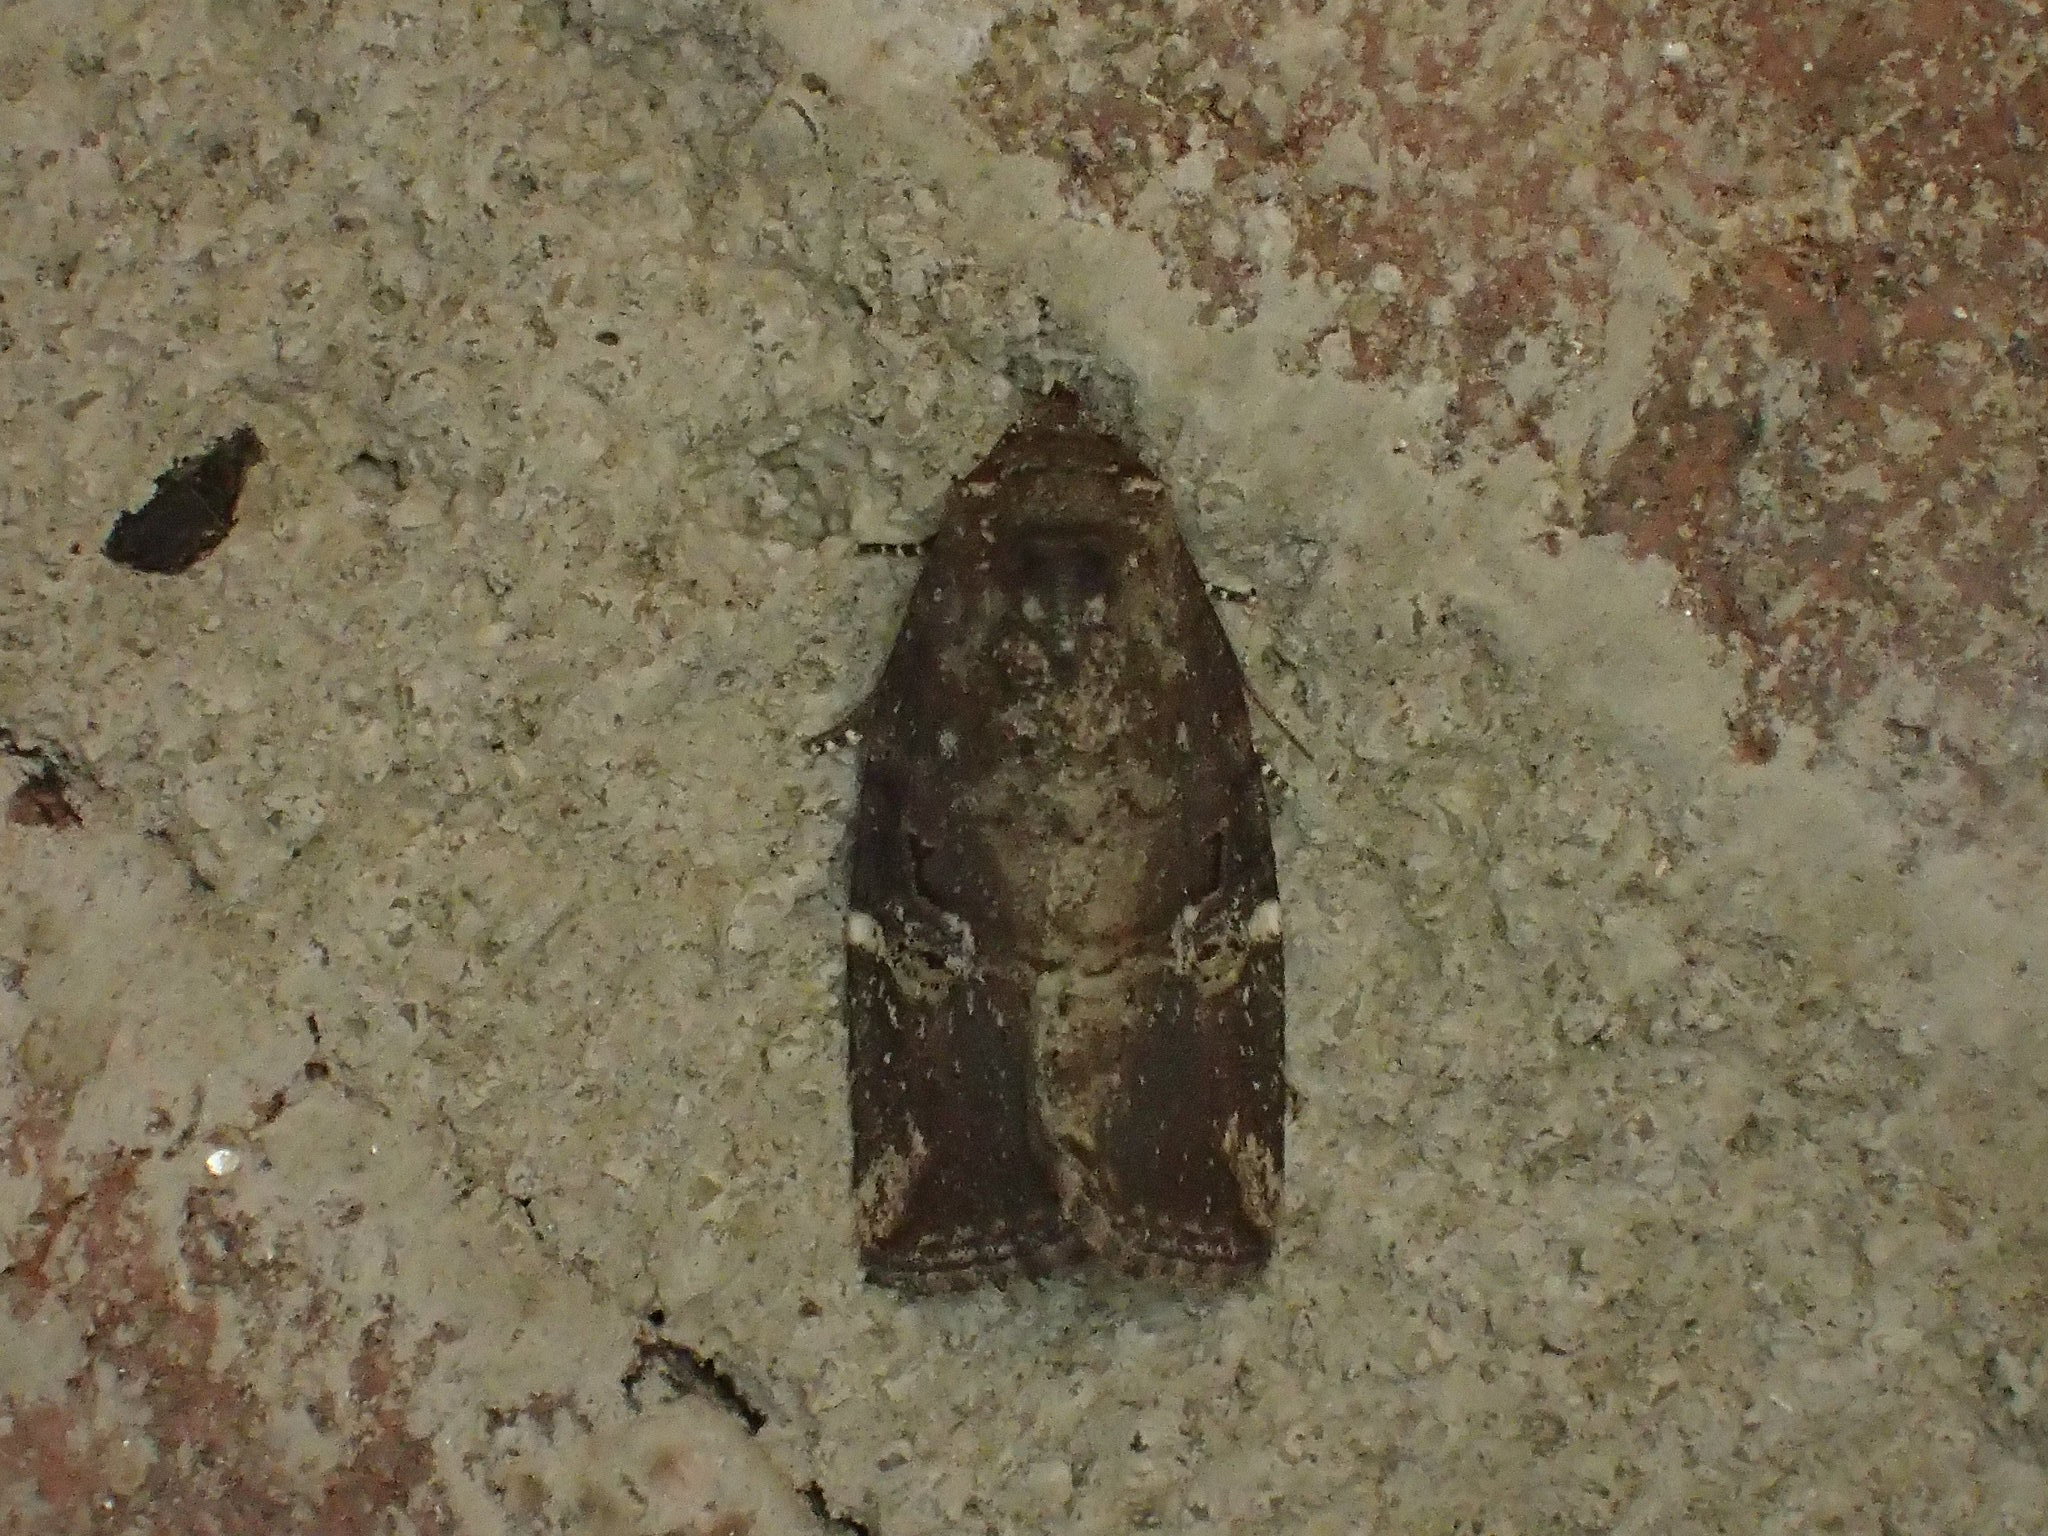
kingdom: Animalia
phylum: Arthropoda
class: Insecta
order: Lepidoptera
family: Noctuidae
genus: Elaphria
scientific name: Elaphria versicolor
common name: Fir harlequin
